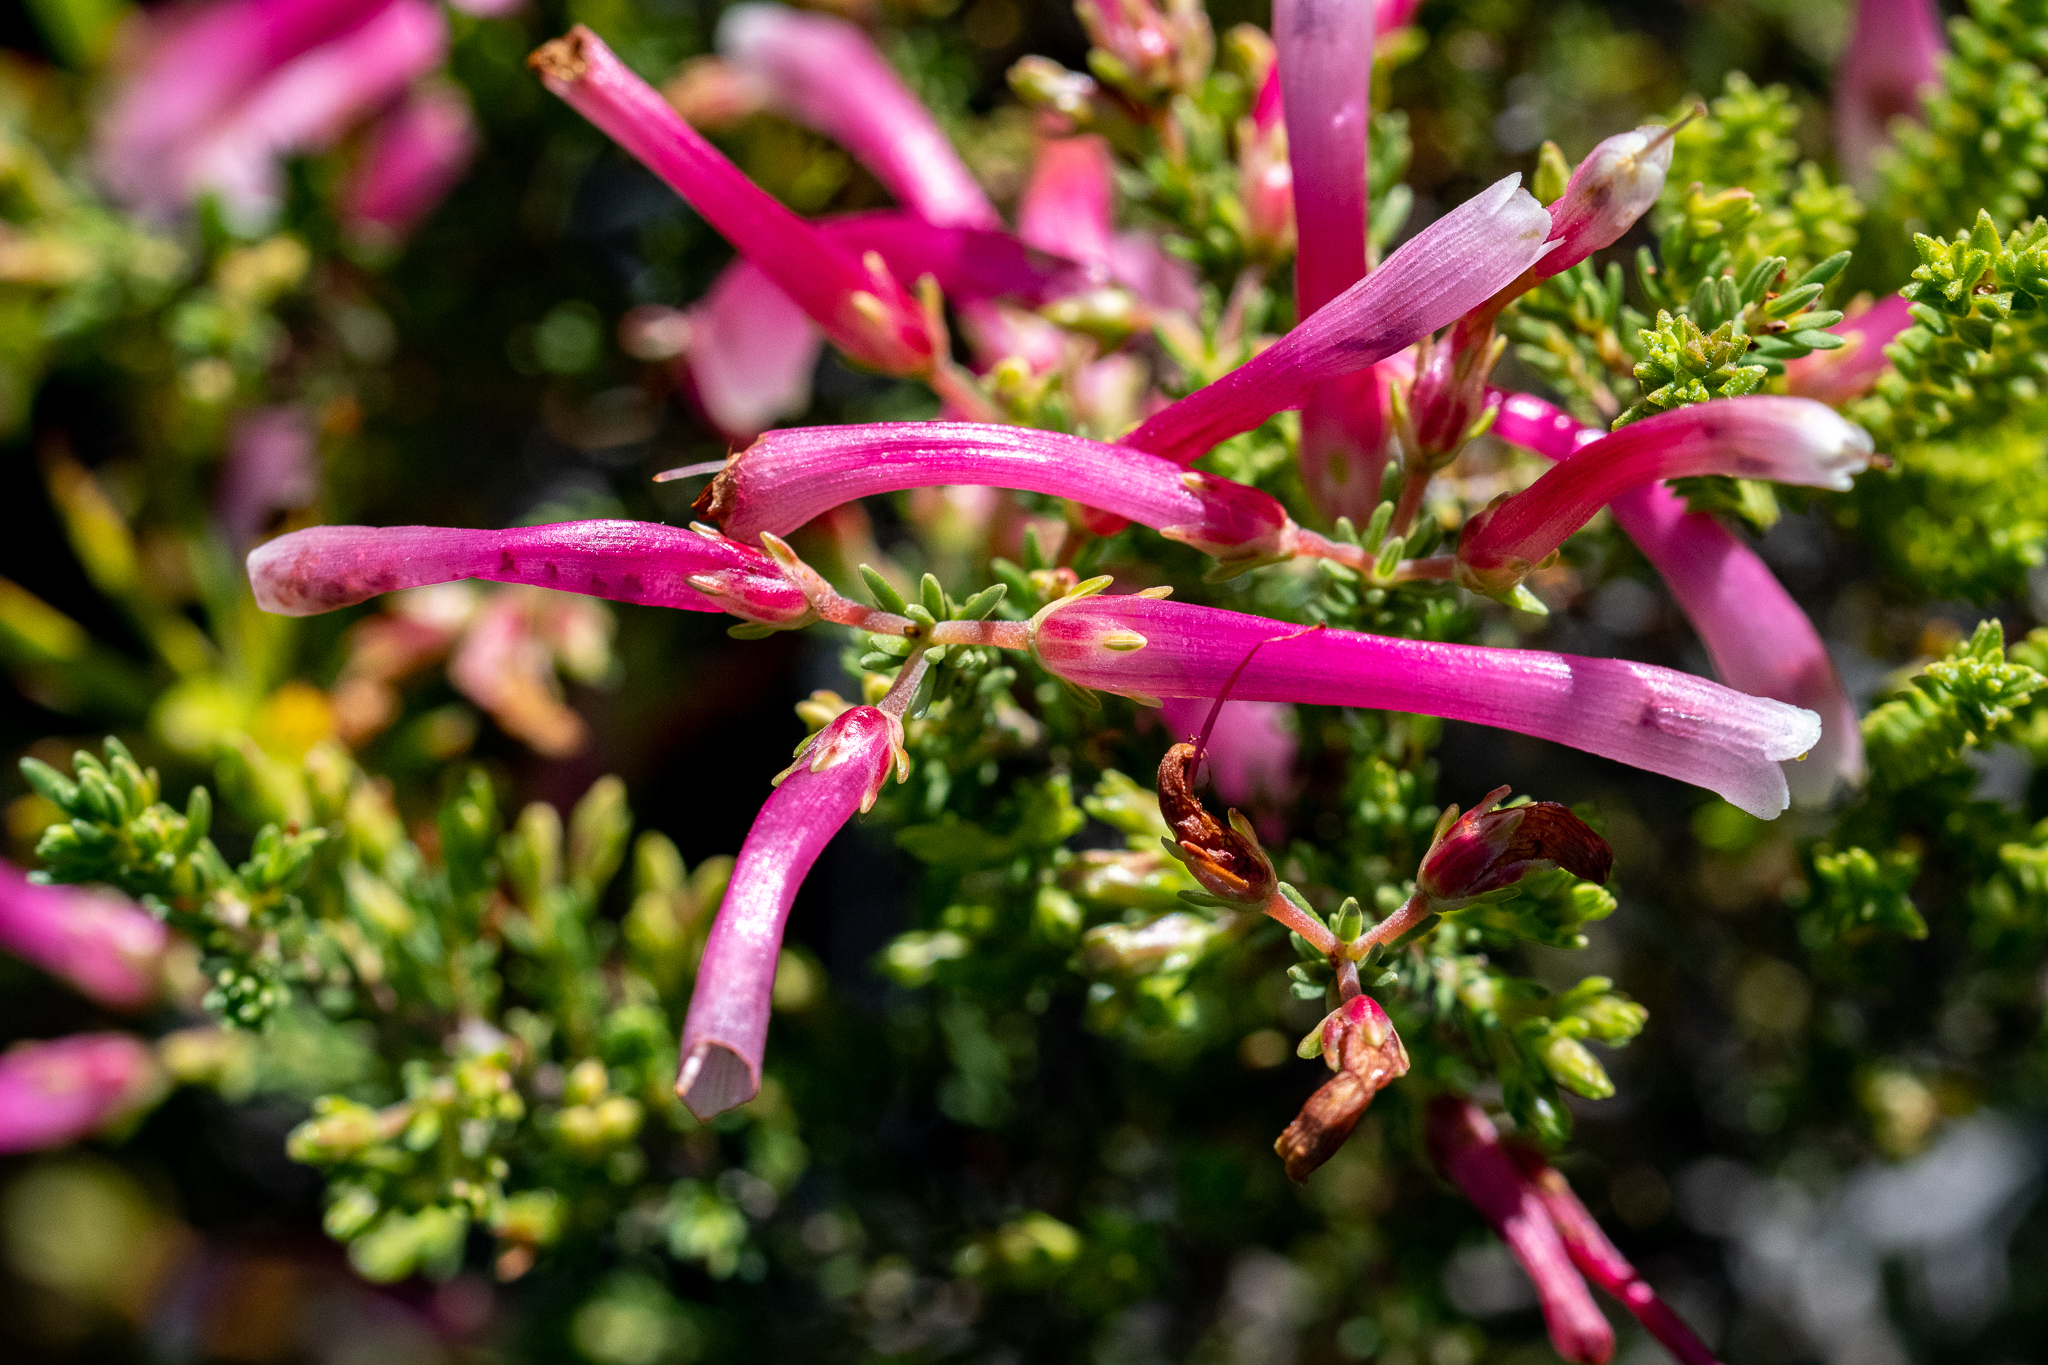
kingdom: Plantae
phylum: Tracheophyta
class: Magnoliopsida
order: Ericales
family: Ericaceae
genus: Erica
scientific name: Erica discolor
